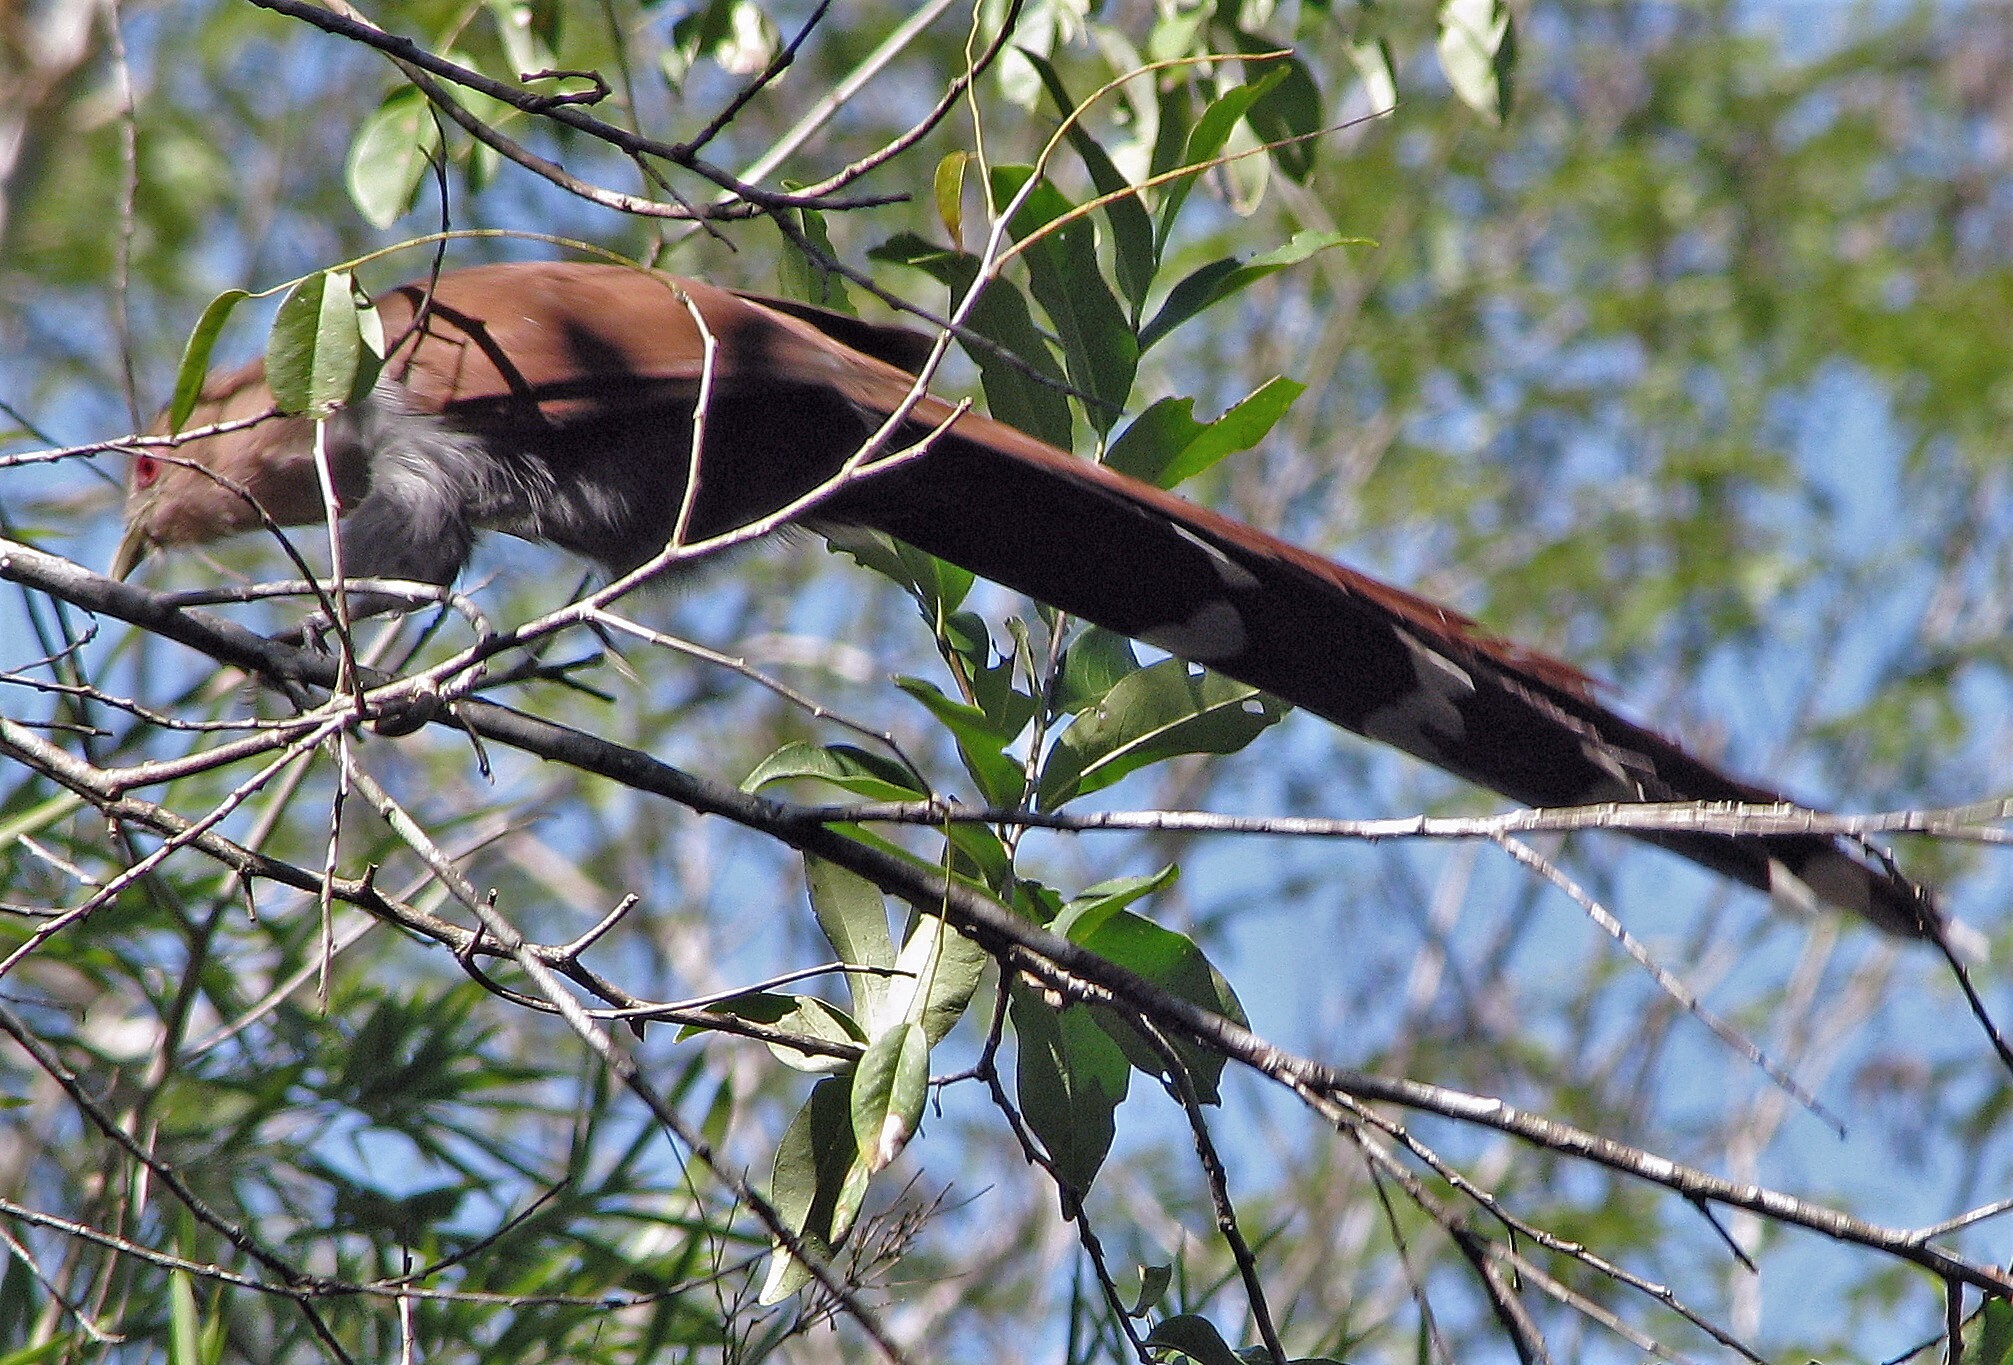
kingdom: Animalia
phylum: Chordata
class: Aves
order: Cuculiformes
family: Cuculidae
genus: Piaya
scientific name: Piaya cayana
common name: Squirrel cuckoo
